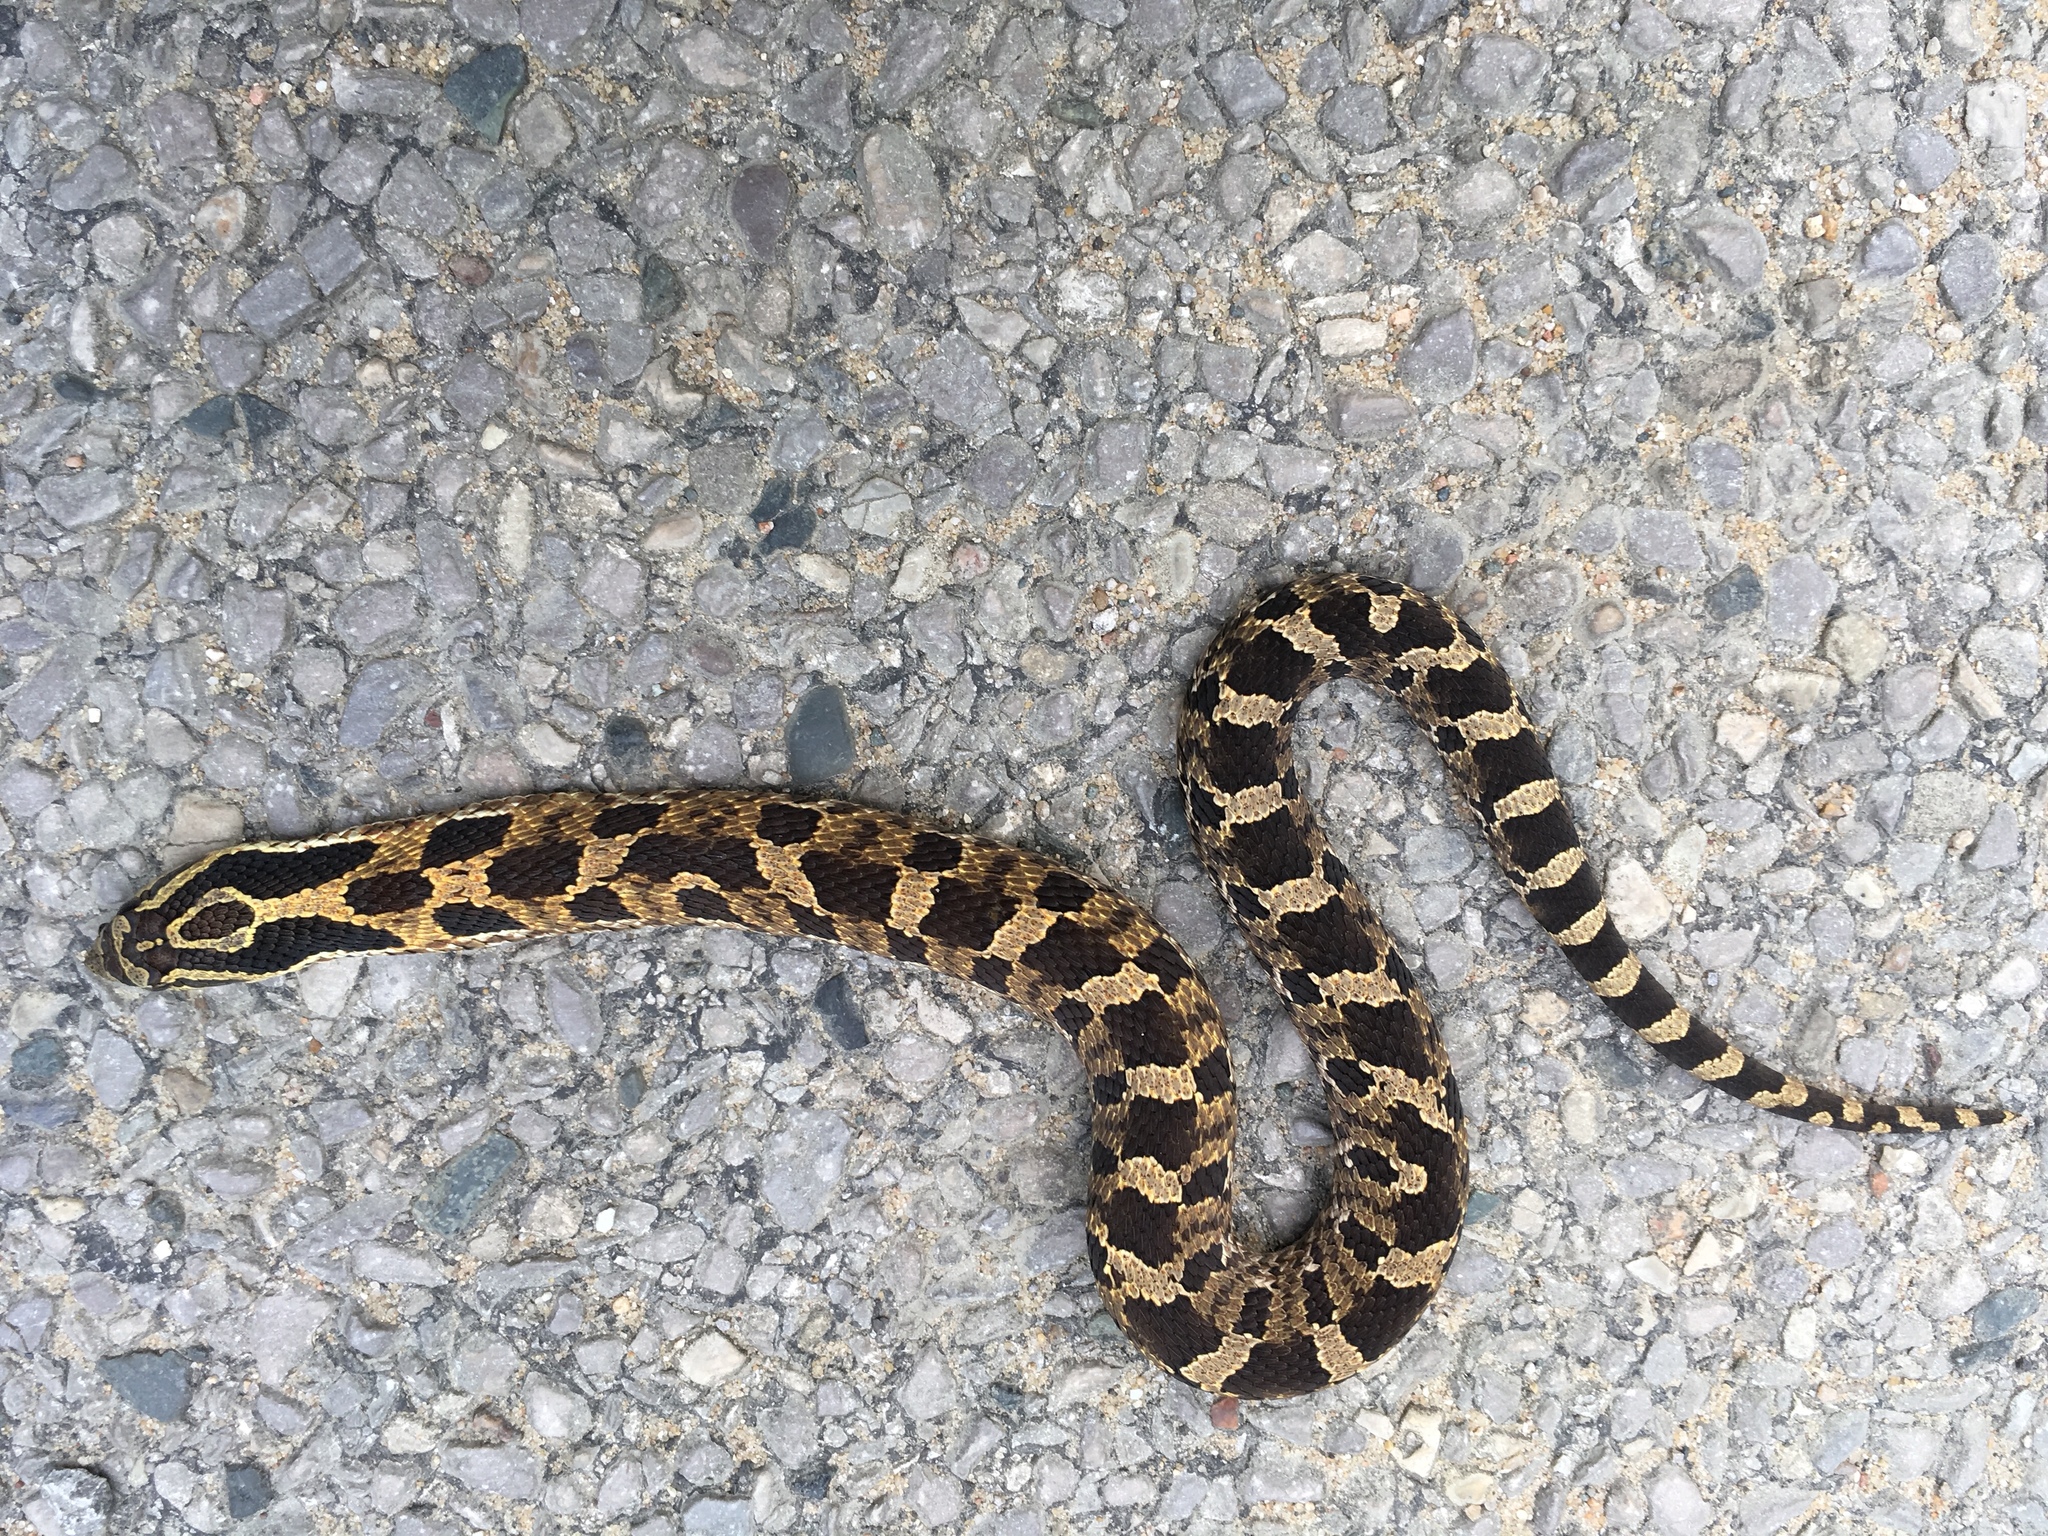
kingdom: Animalia
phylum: Chordata
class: Squamata
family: Colubridae
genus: Heterodon
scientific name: Heterodon platirhinos
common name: Eastern hognose snake
